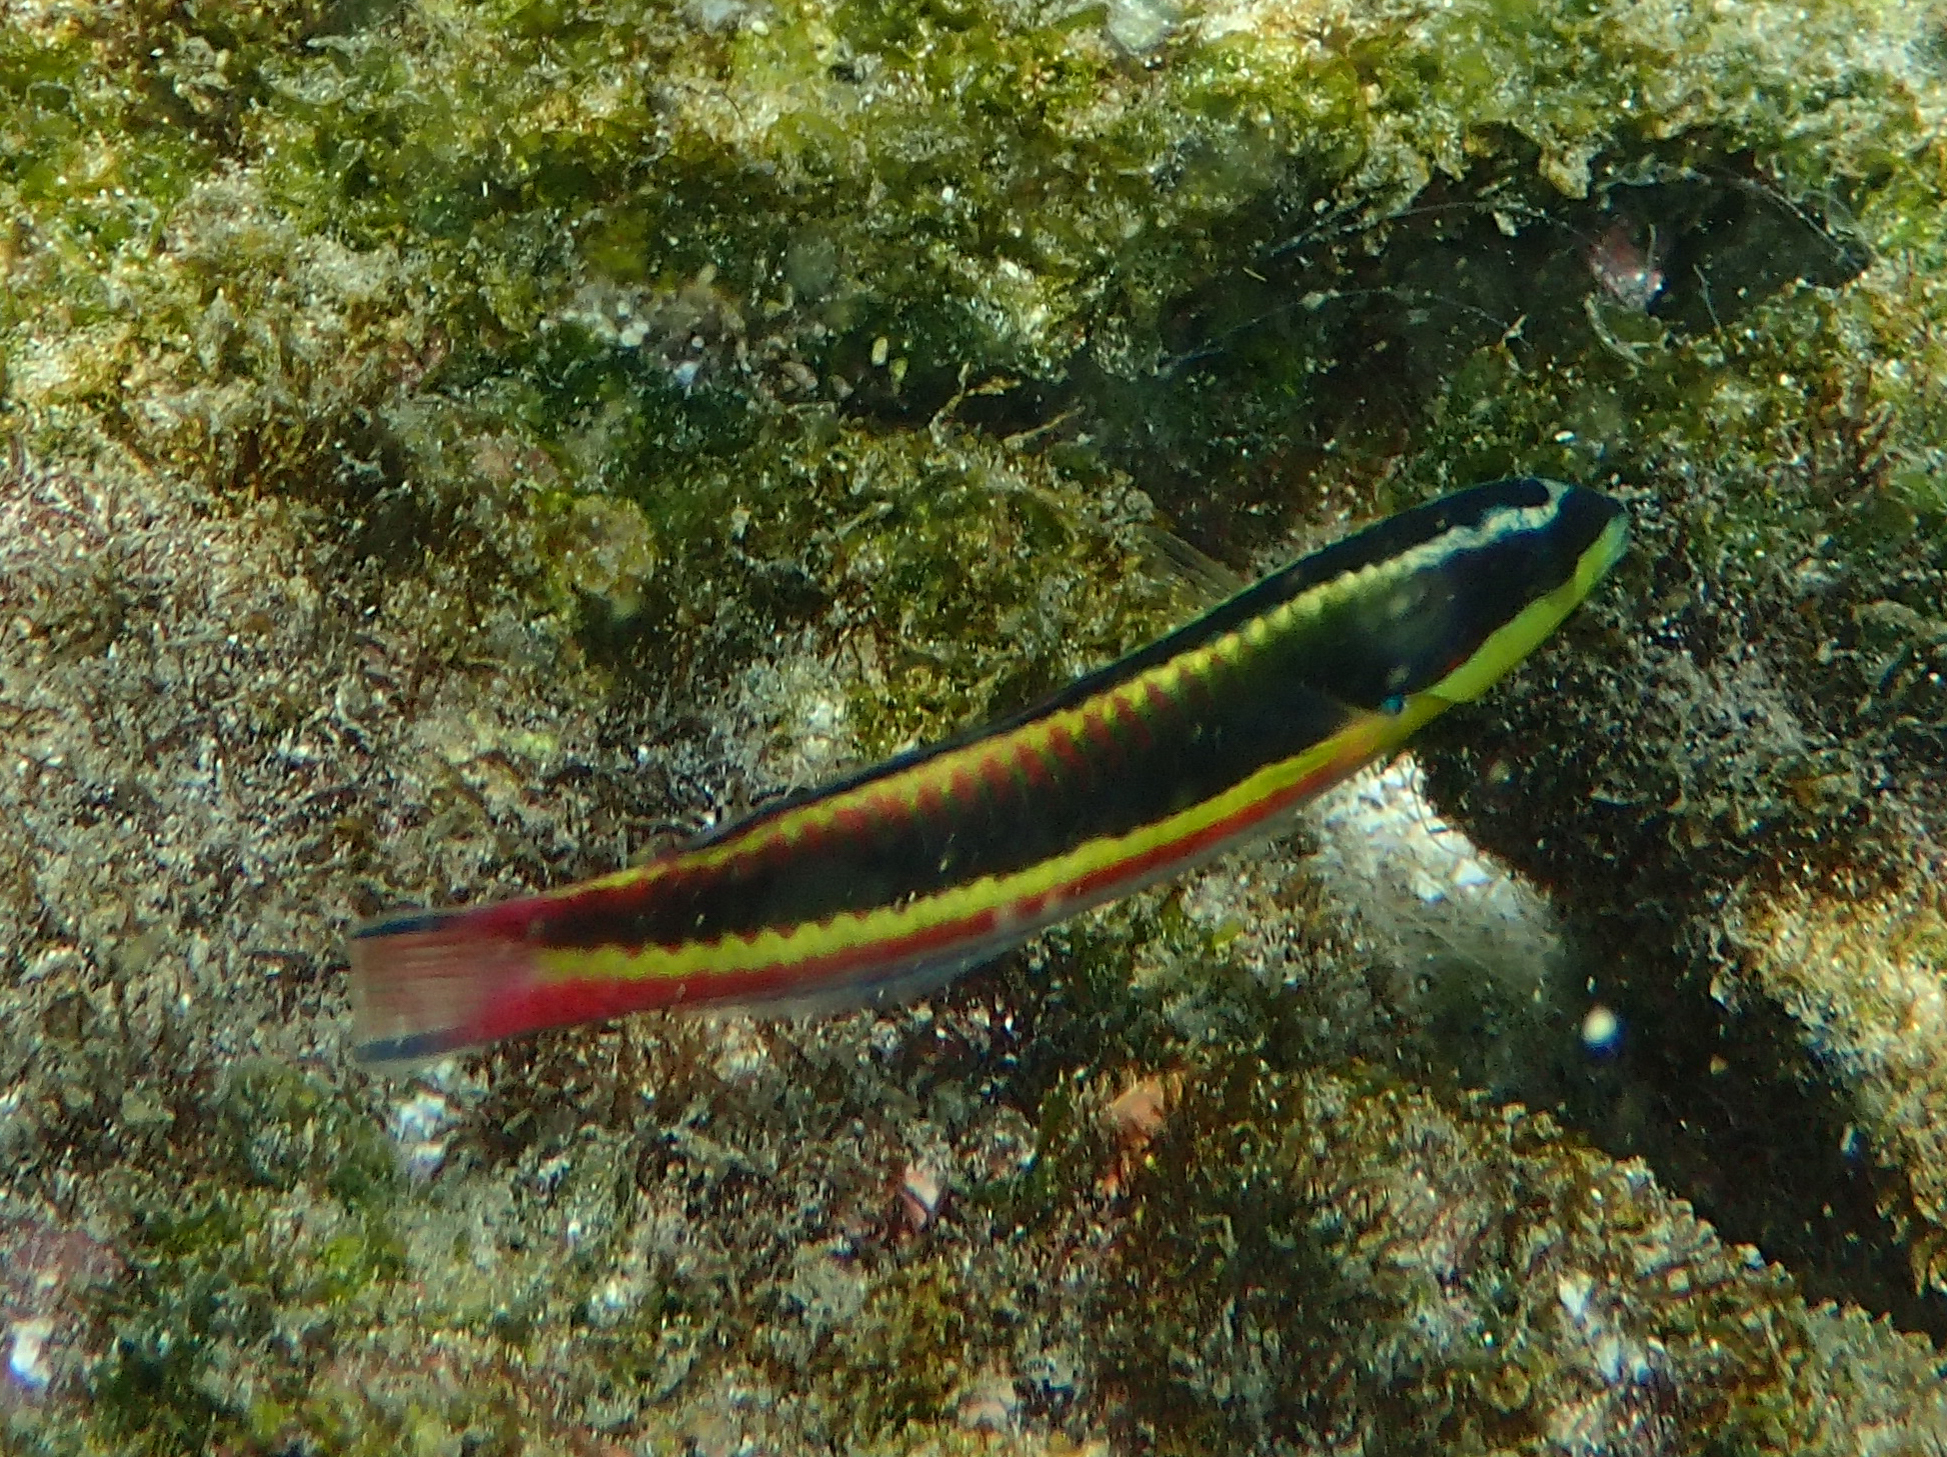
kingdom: Animalia
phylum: Chordata
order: Perciformes
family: Labridae
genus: Thalassoma
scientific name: Thalassoma lucasanum
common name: Cortez rainbow wrasse
